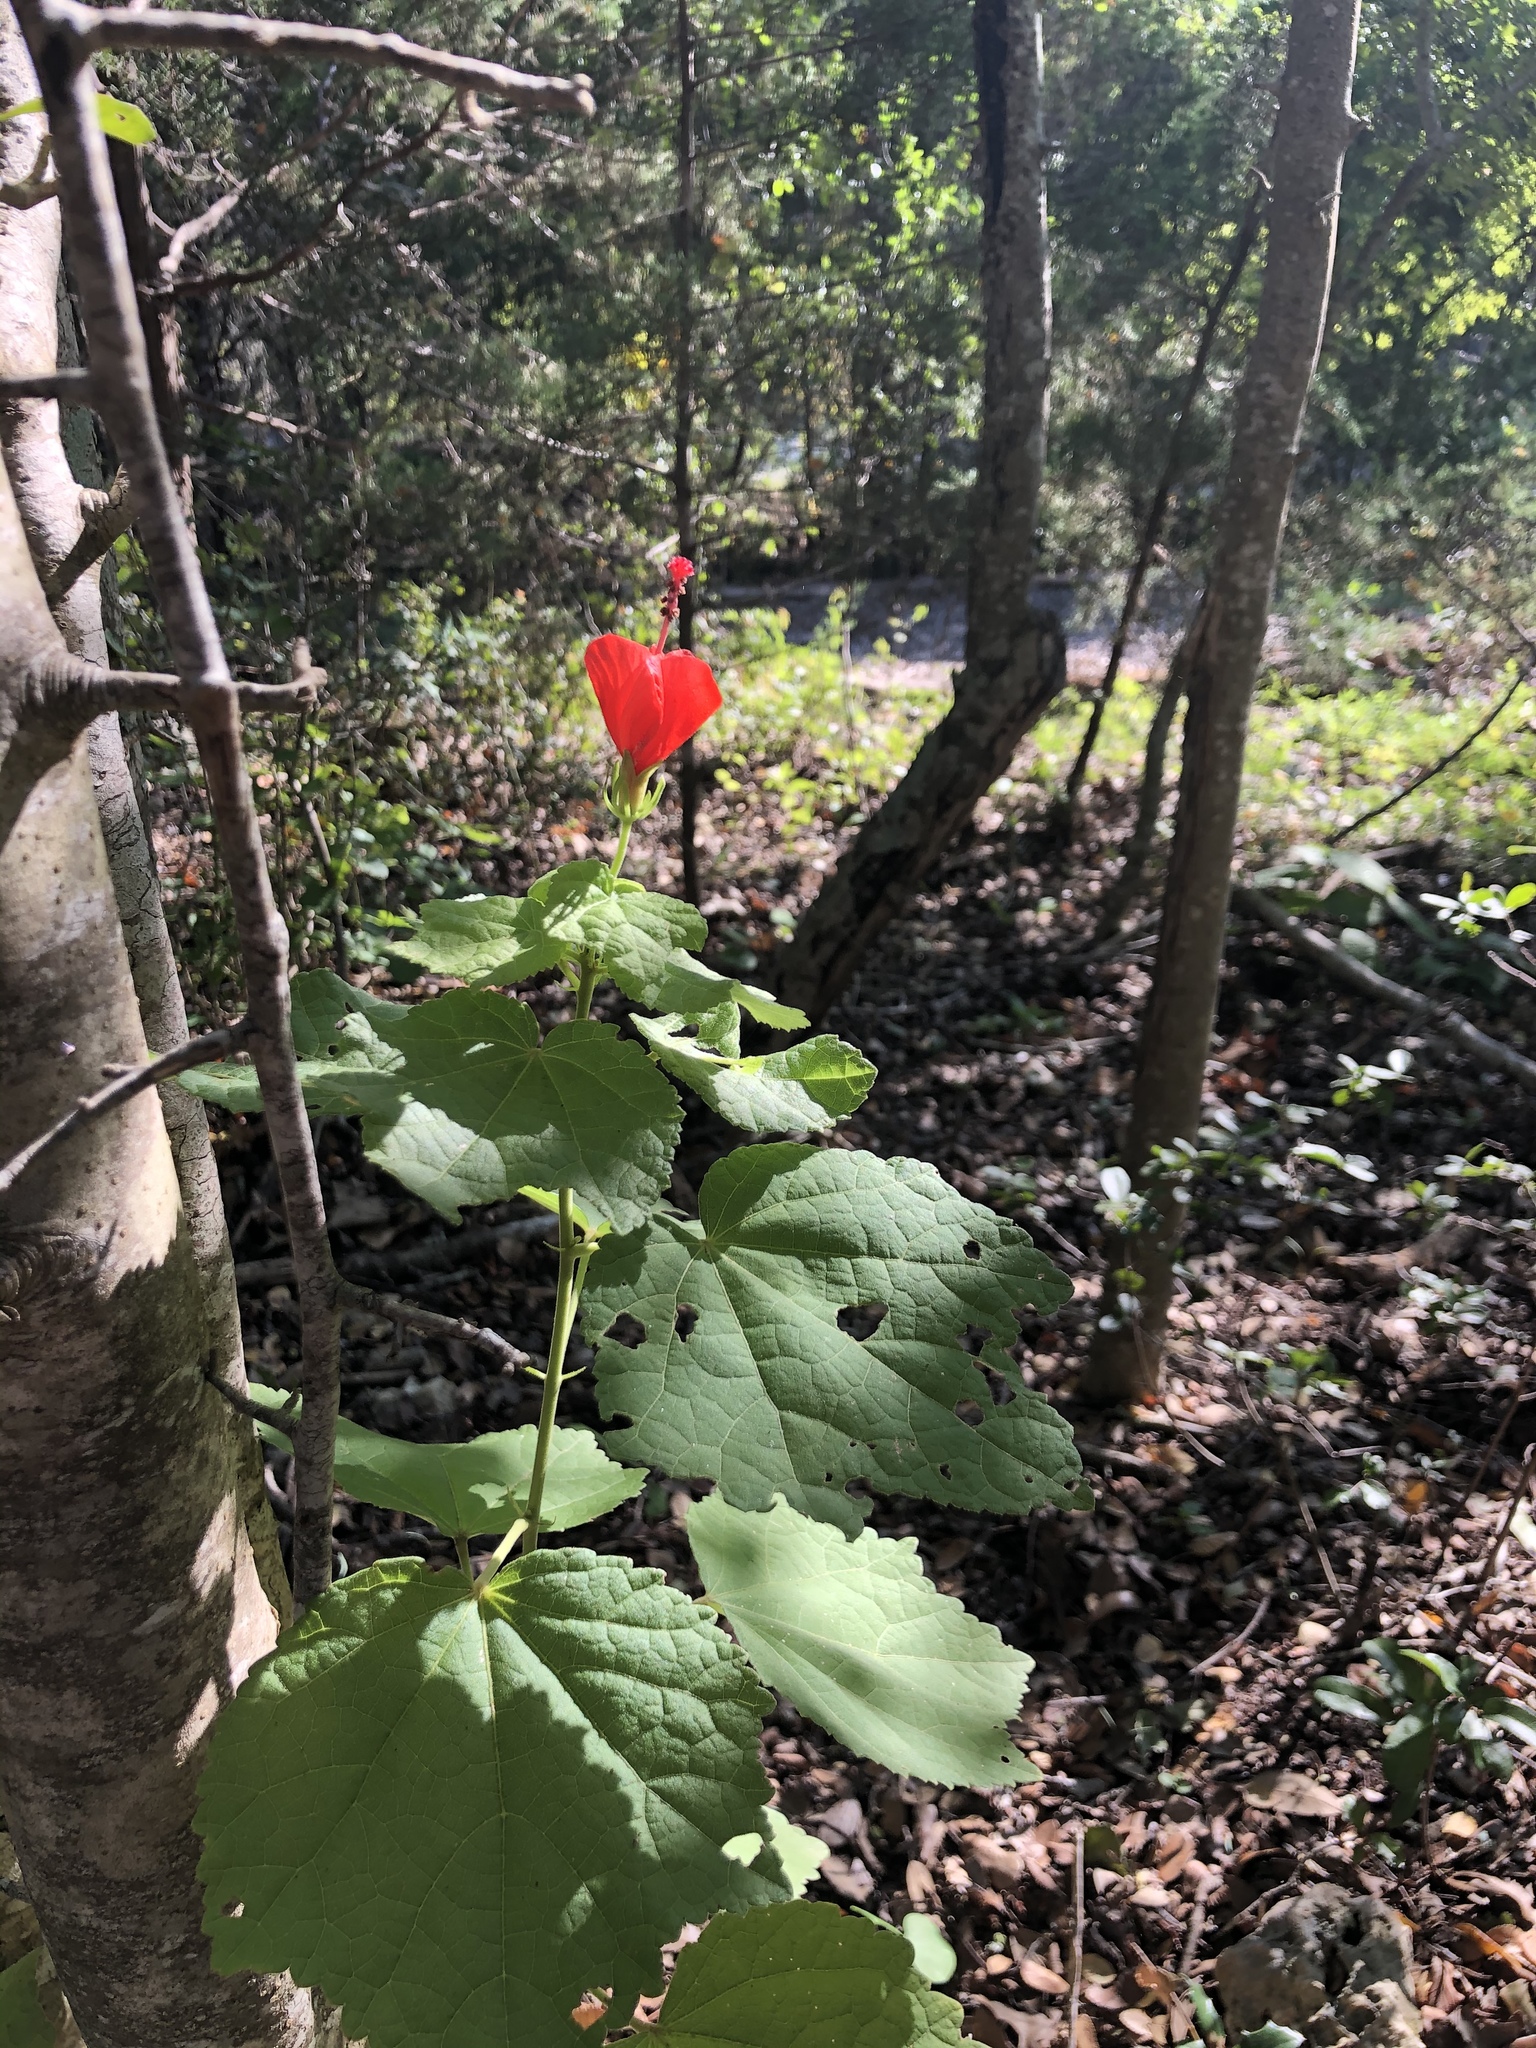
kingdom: Plantae
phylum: Tracheophyta
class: Magnoliopsida
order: Malvales
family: Malvaceae
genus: Malvaviscus
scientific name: Malvaviscus arboreus
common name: Wax mallow
